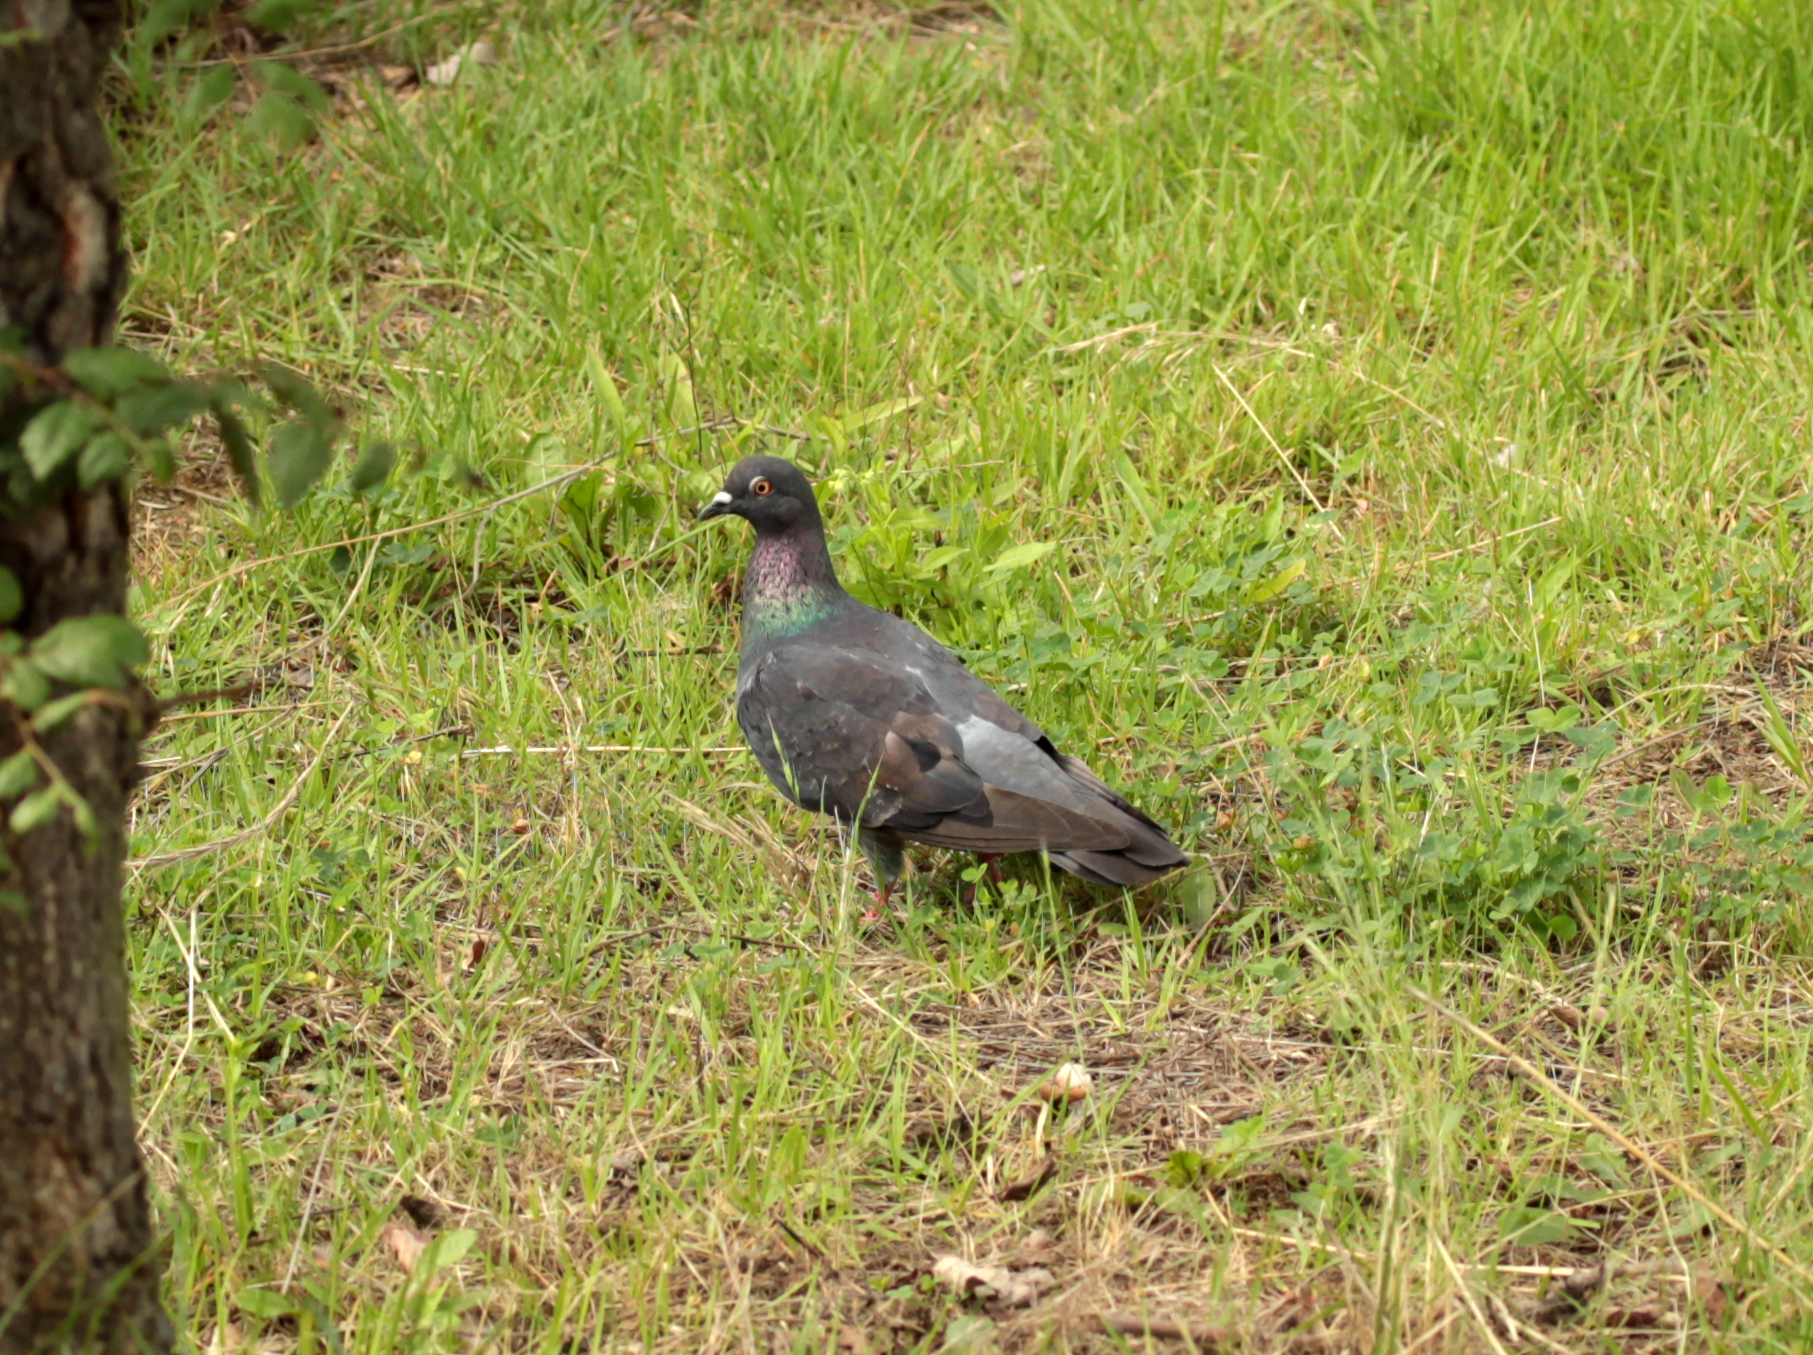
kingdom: Animalia
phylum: Chordata
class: Aves
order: Columbiformes
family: Columbidae
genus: Columba
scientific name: Columba livia
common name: Rock pigeon
